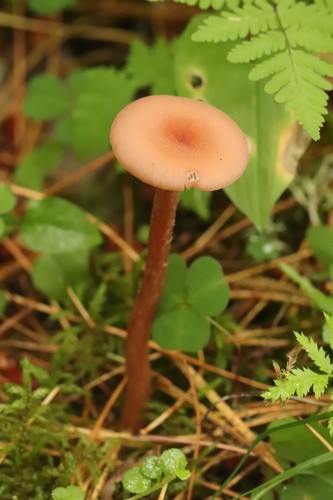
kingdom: Fungi
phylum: Basidiomycota
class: Agaricomycetes
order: Agaricales
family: Hydnangiaceae
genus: Laccaria
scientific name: Laccaria proxima
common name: Scurfy deceiver
